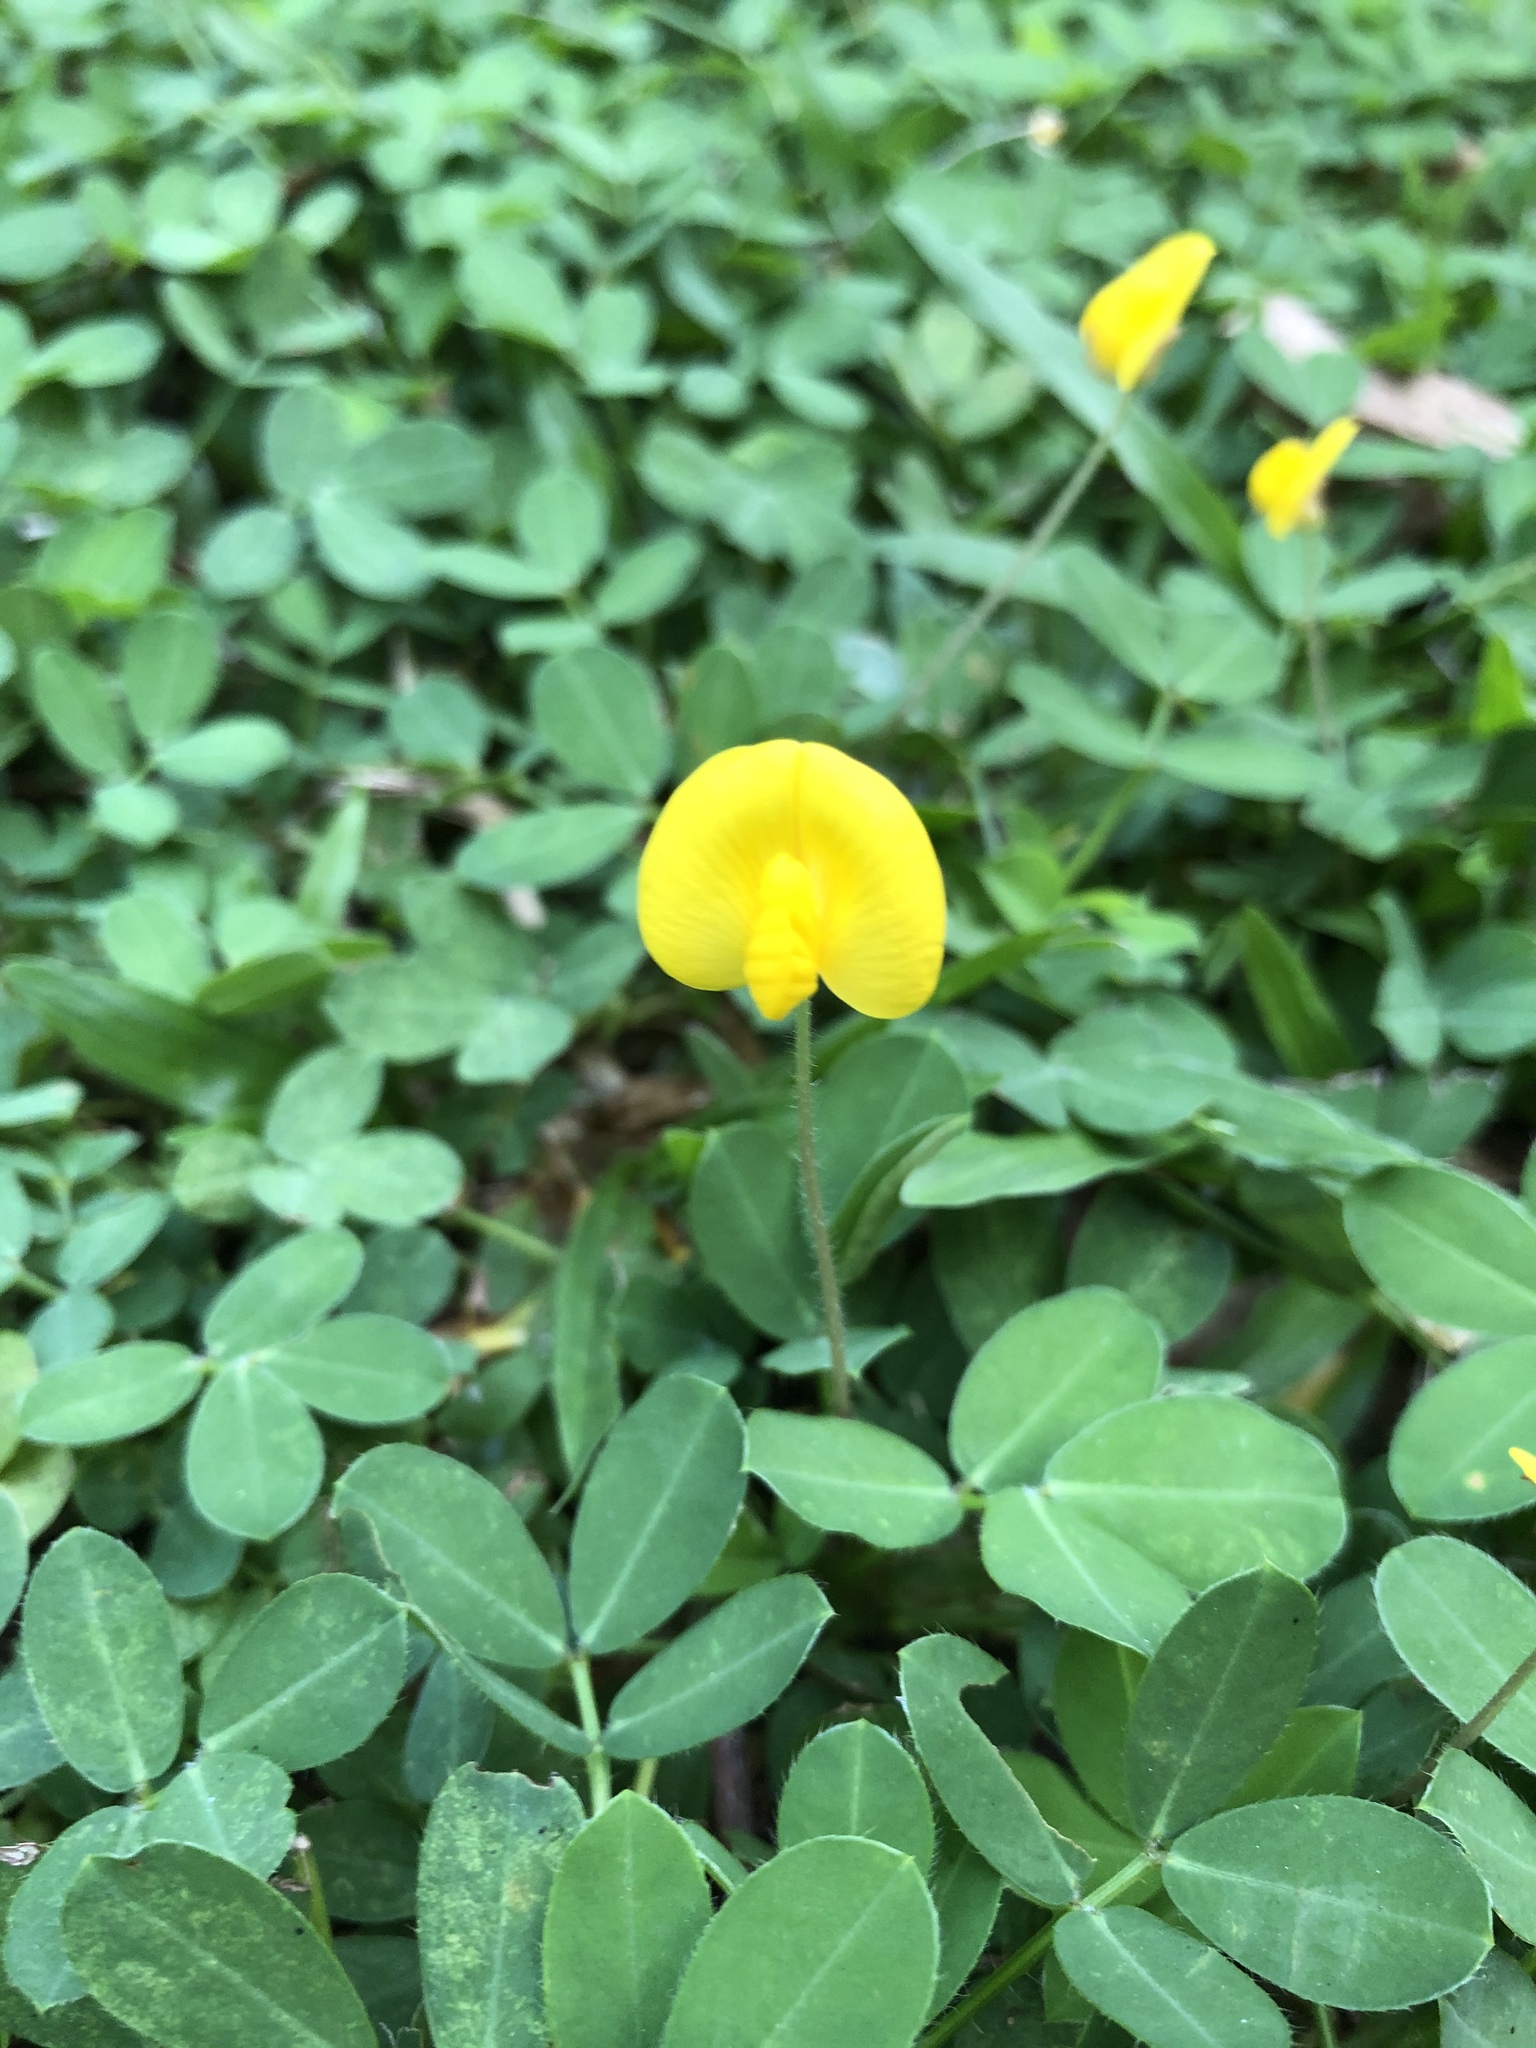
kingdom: Plantae
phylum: Tracheophyta
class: Magnoliopsida
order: Fabales
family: Fabaceae
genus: Arachis
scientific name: Arachis pintoi
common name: Pinto peanut
